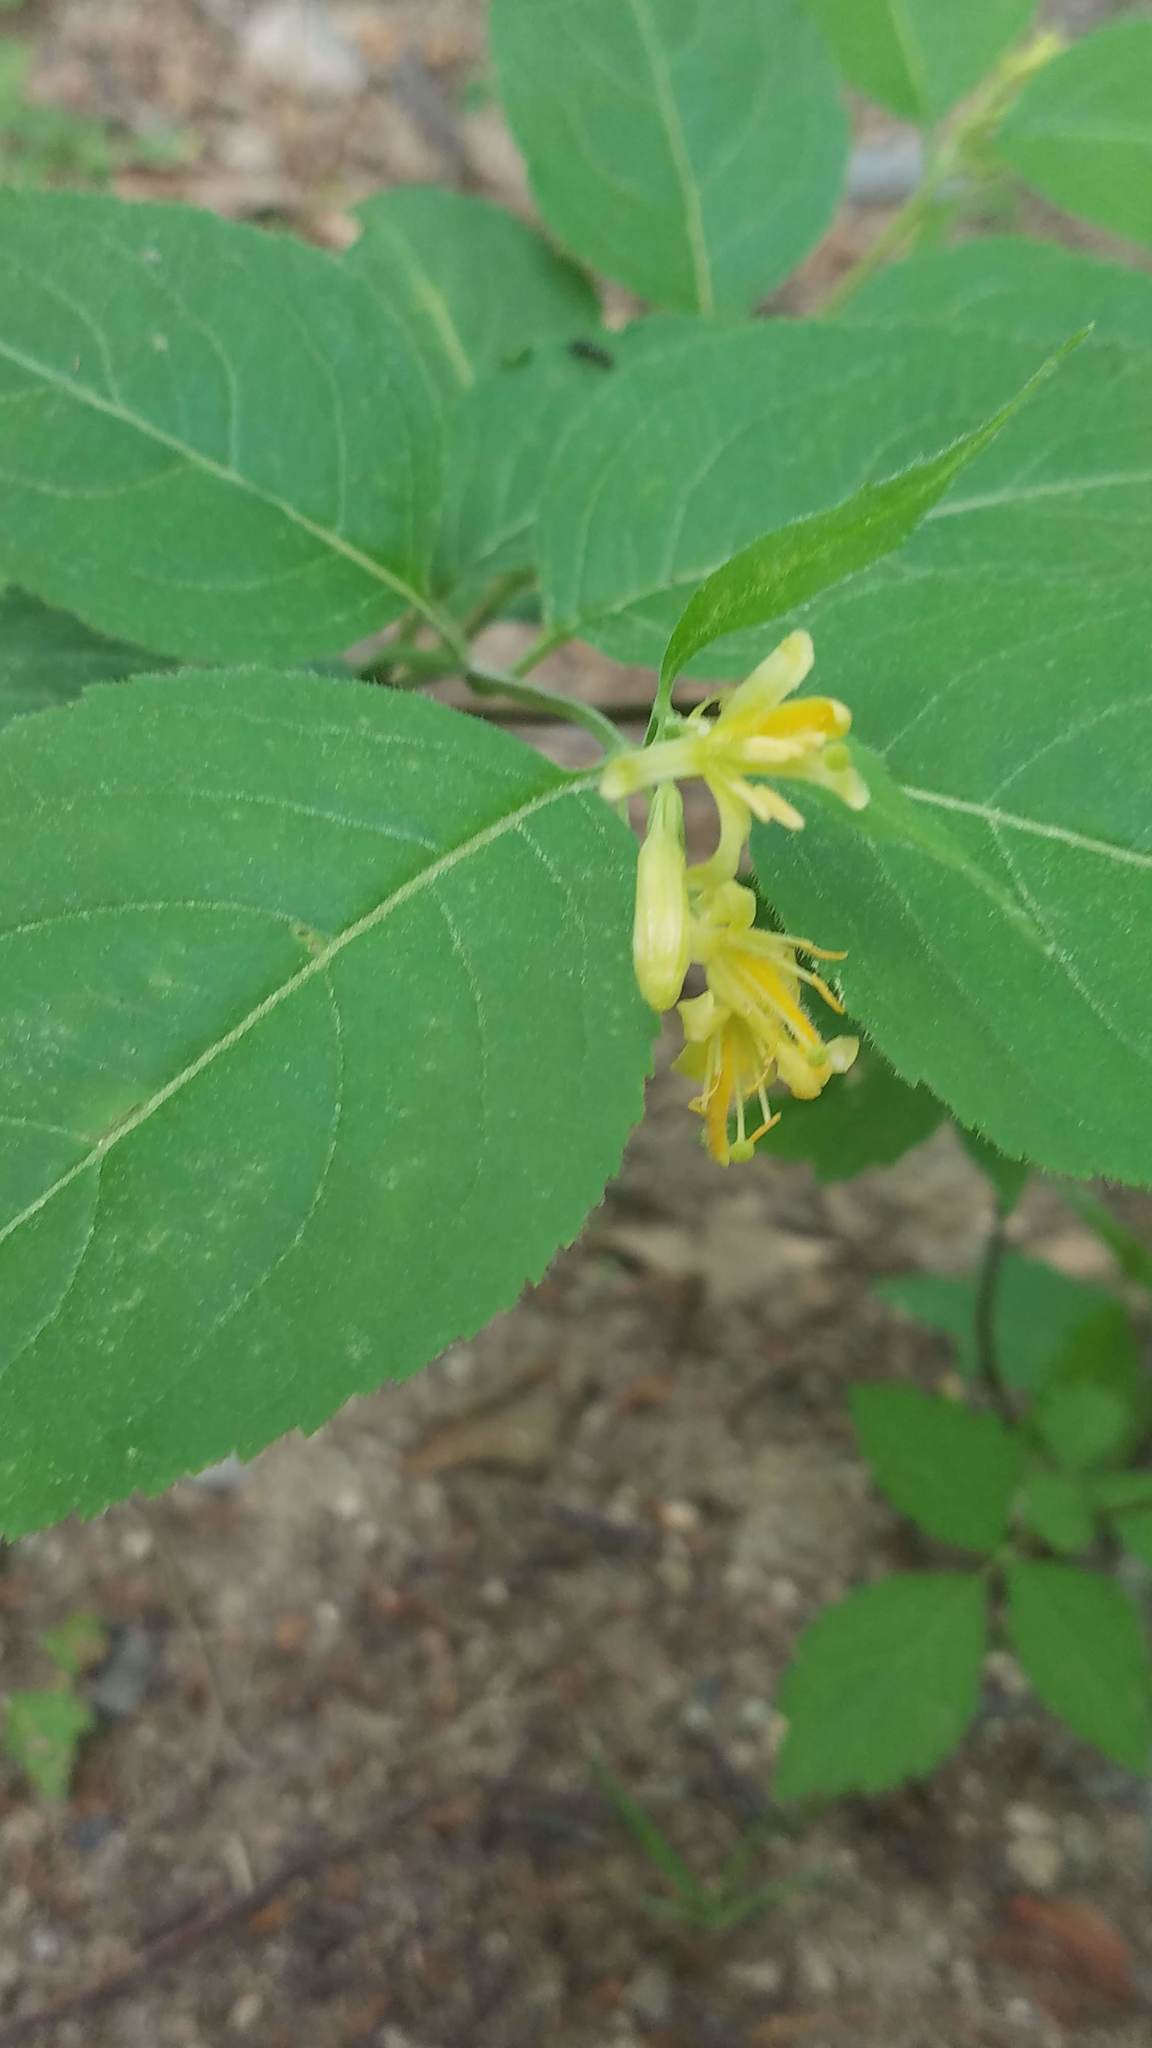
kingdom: Plantae
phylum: Tracheophyta
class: Magnoliopsida
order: Dipsacales
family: Caprifoliaceae
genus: Diervilla
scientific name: Diervilla lonicera
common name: Bush-honeysuckle
